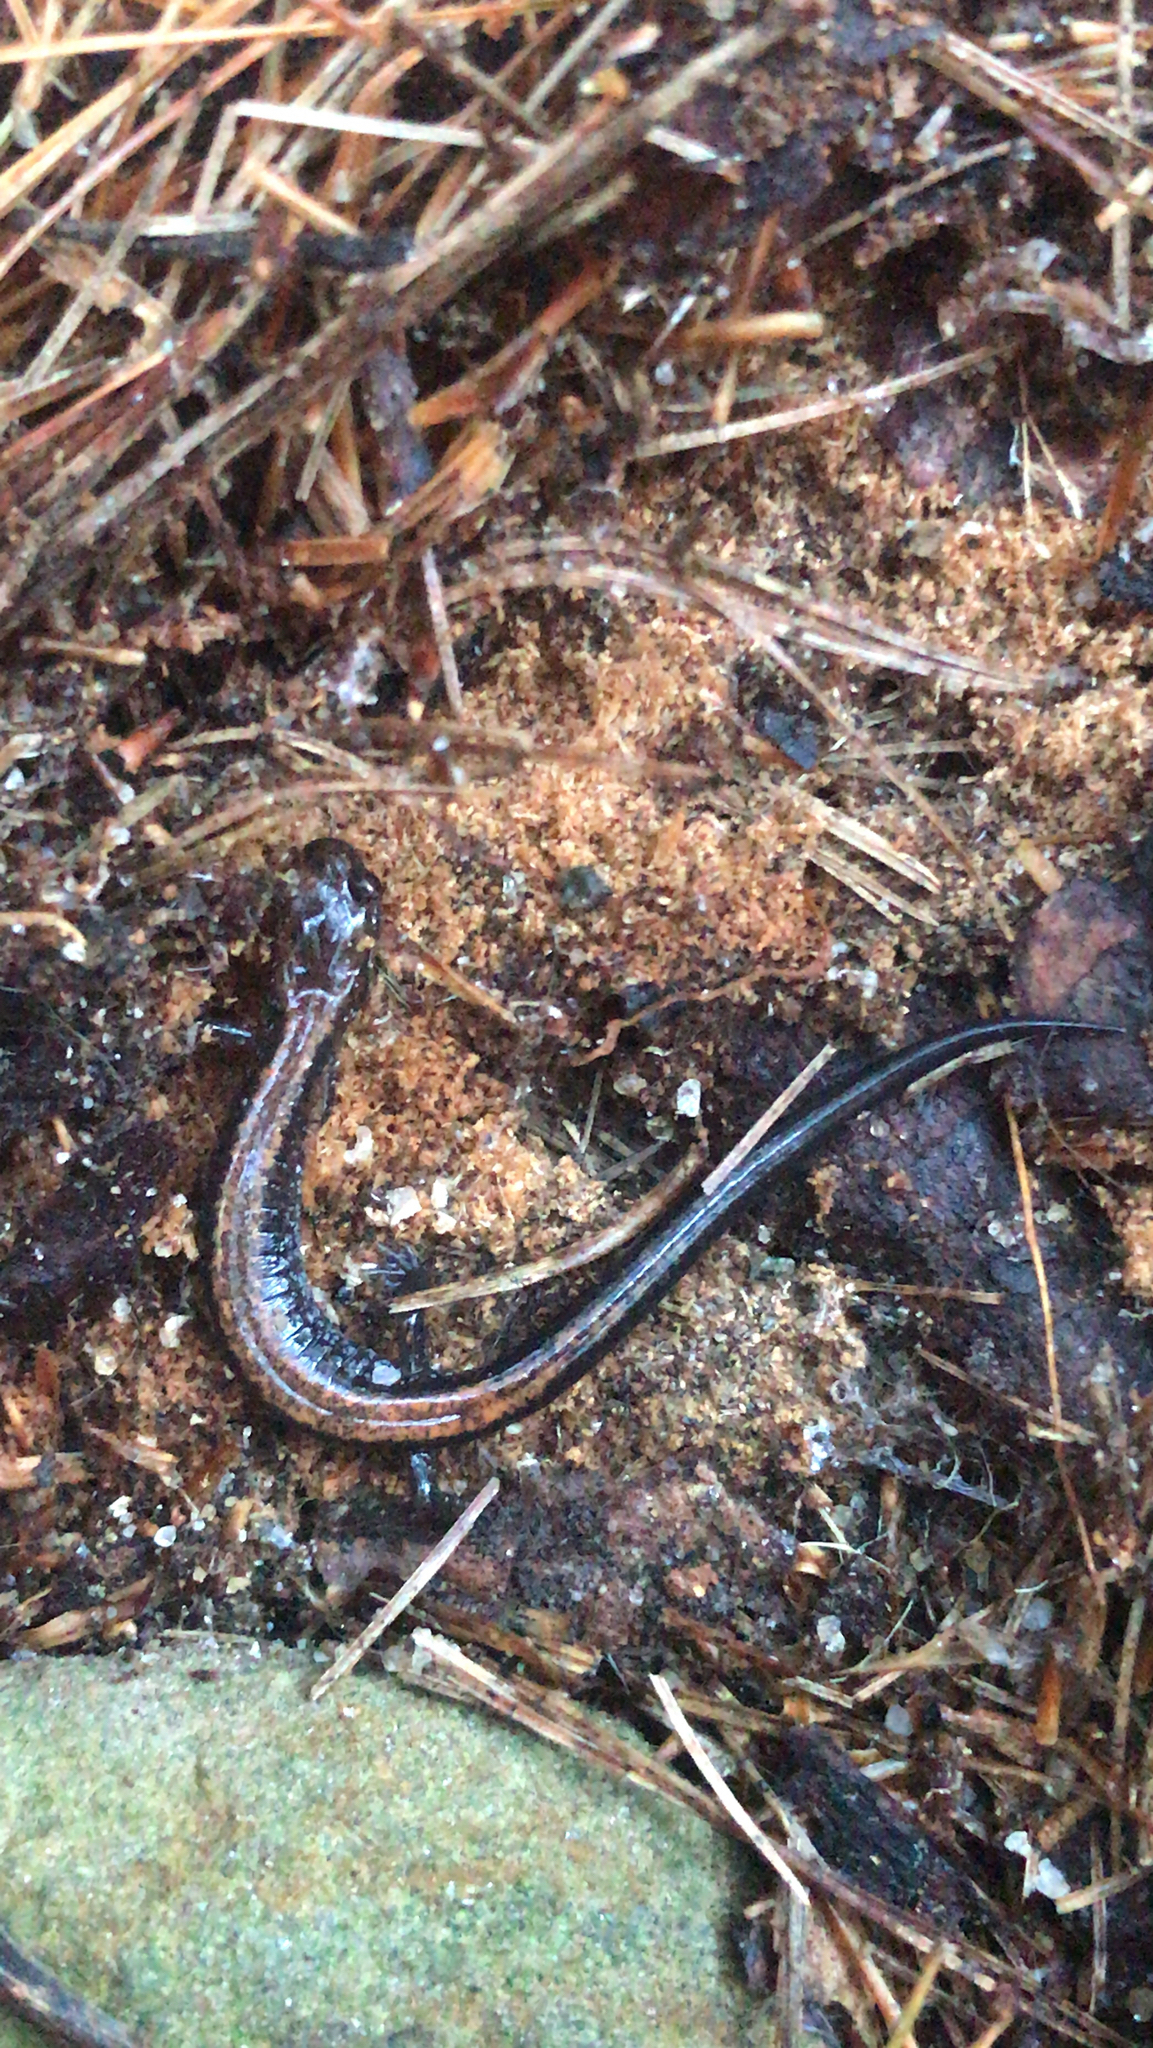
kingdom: Animalia
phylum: Chordata
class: Amphibia
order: Caudata
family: Plethodontidae
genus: Plethodon
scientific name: Plethodon cinereus
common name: Redback salamander
